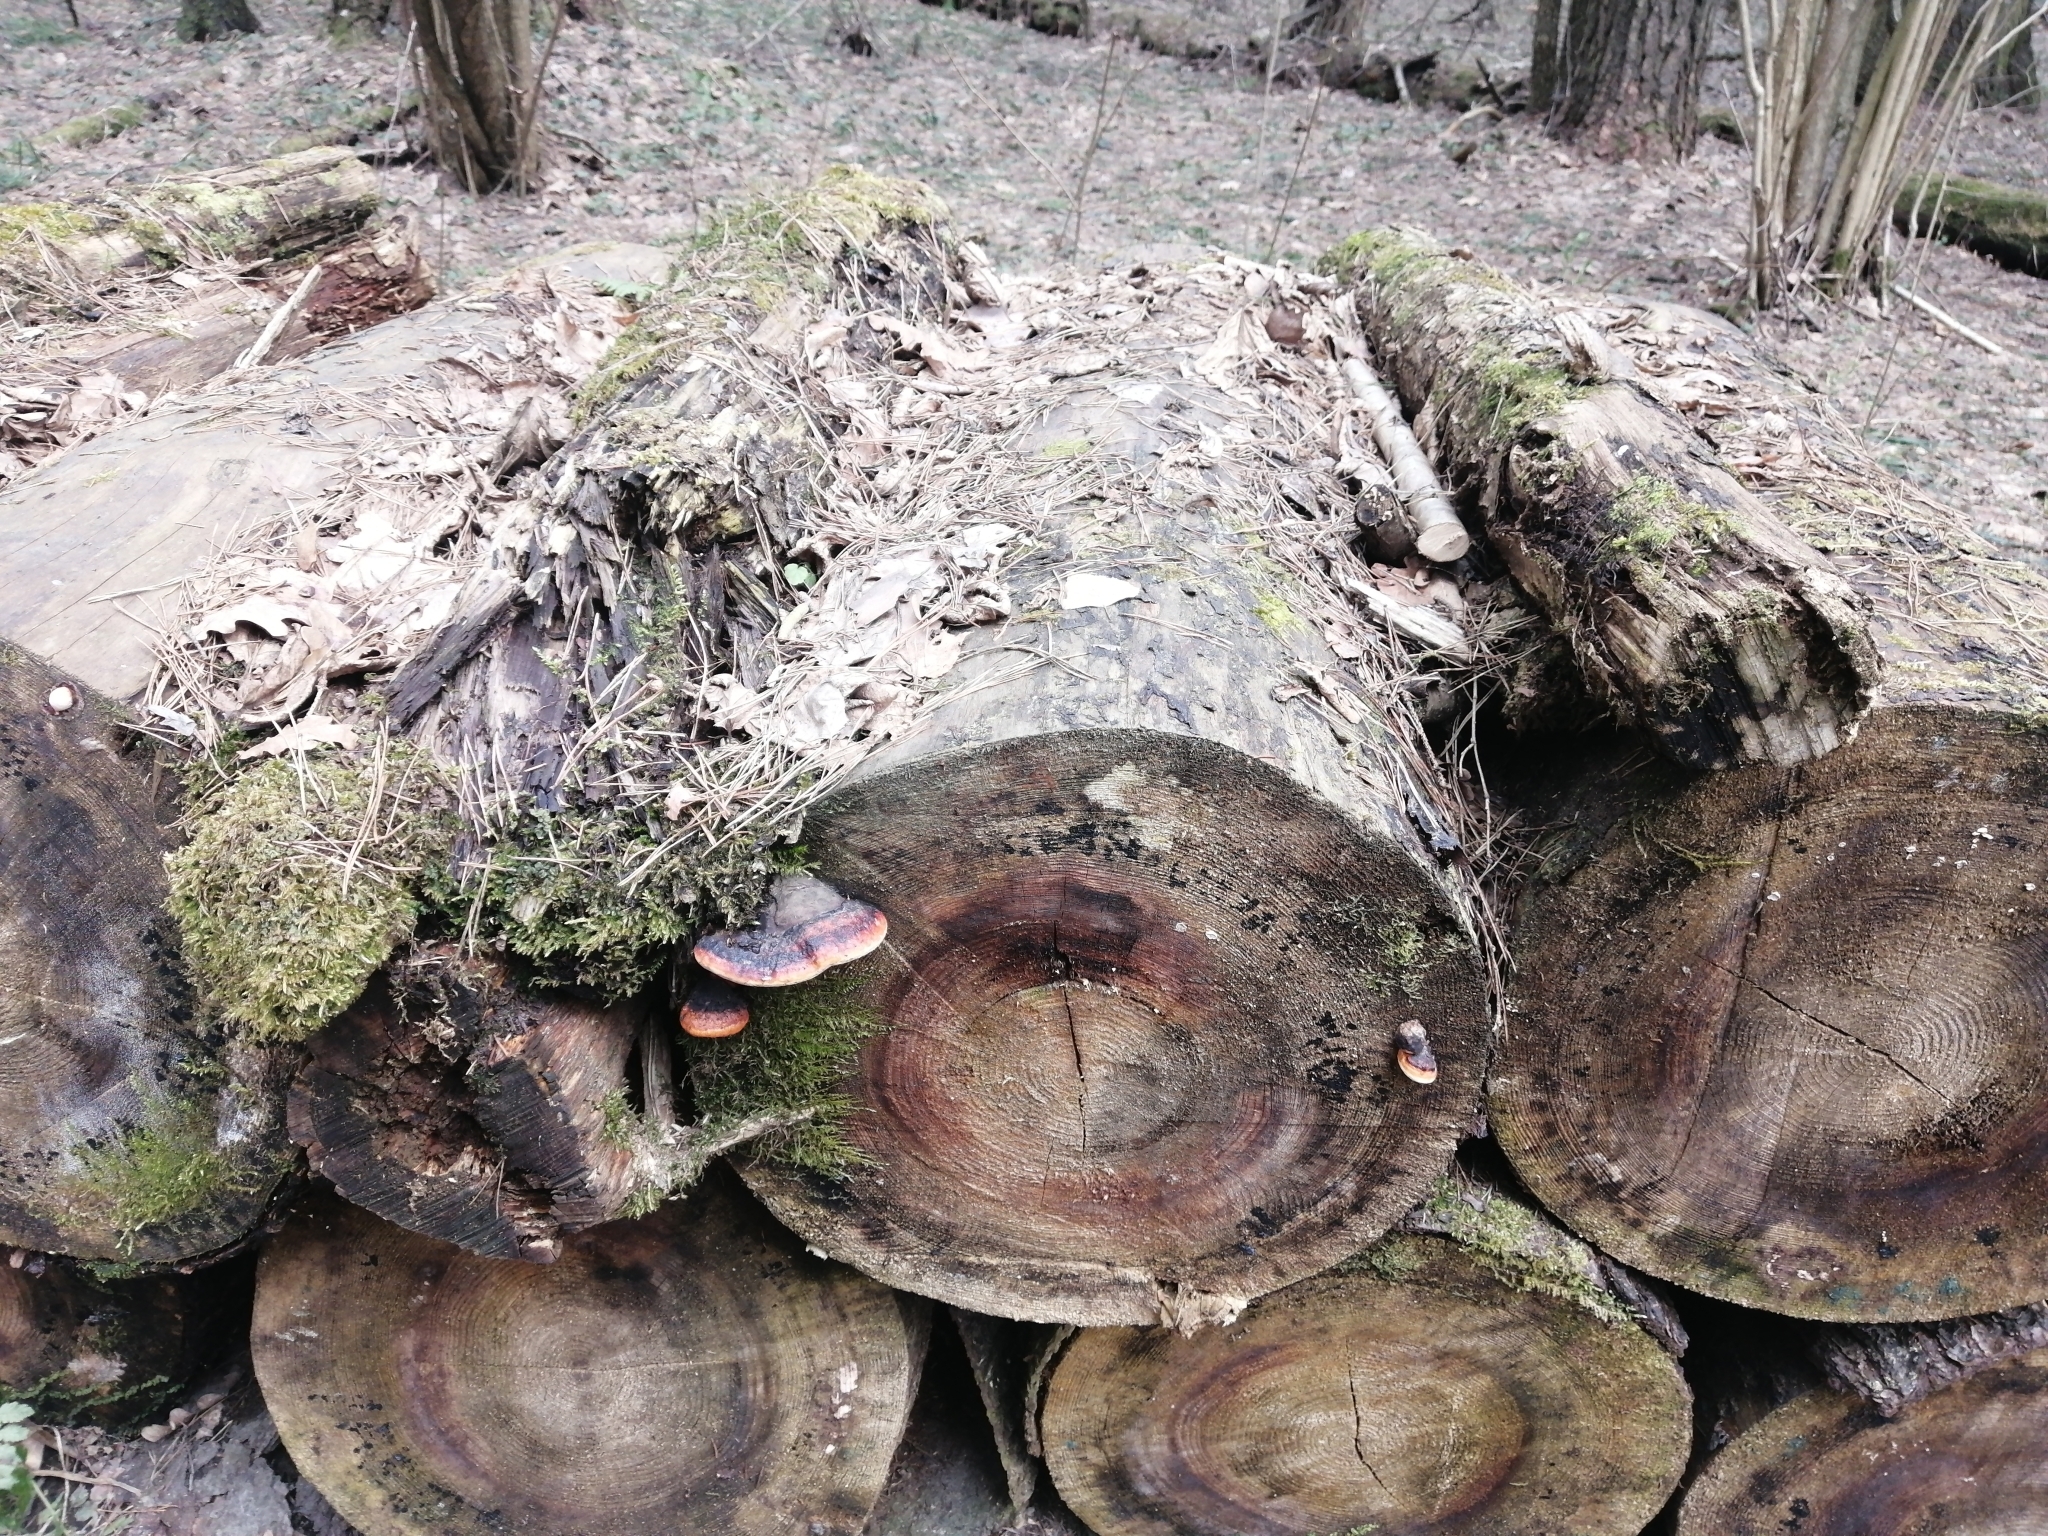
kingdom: Fungi
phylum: Basidiomycota
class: Agaricomycetes
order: Polyporales
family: Fomitopsidaceae
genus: Fomitopsis
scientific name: Fomitopsis pinicola
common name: Red-belted bracket
